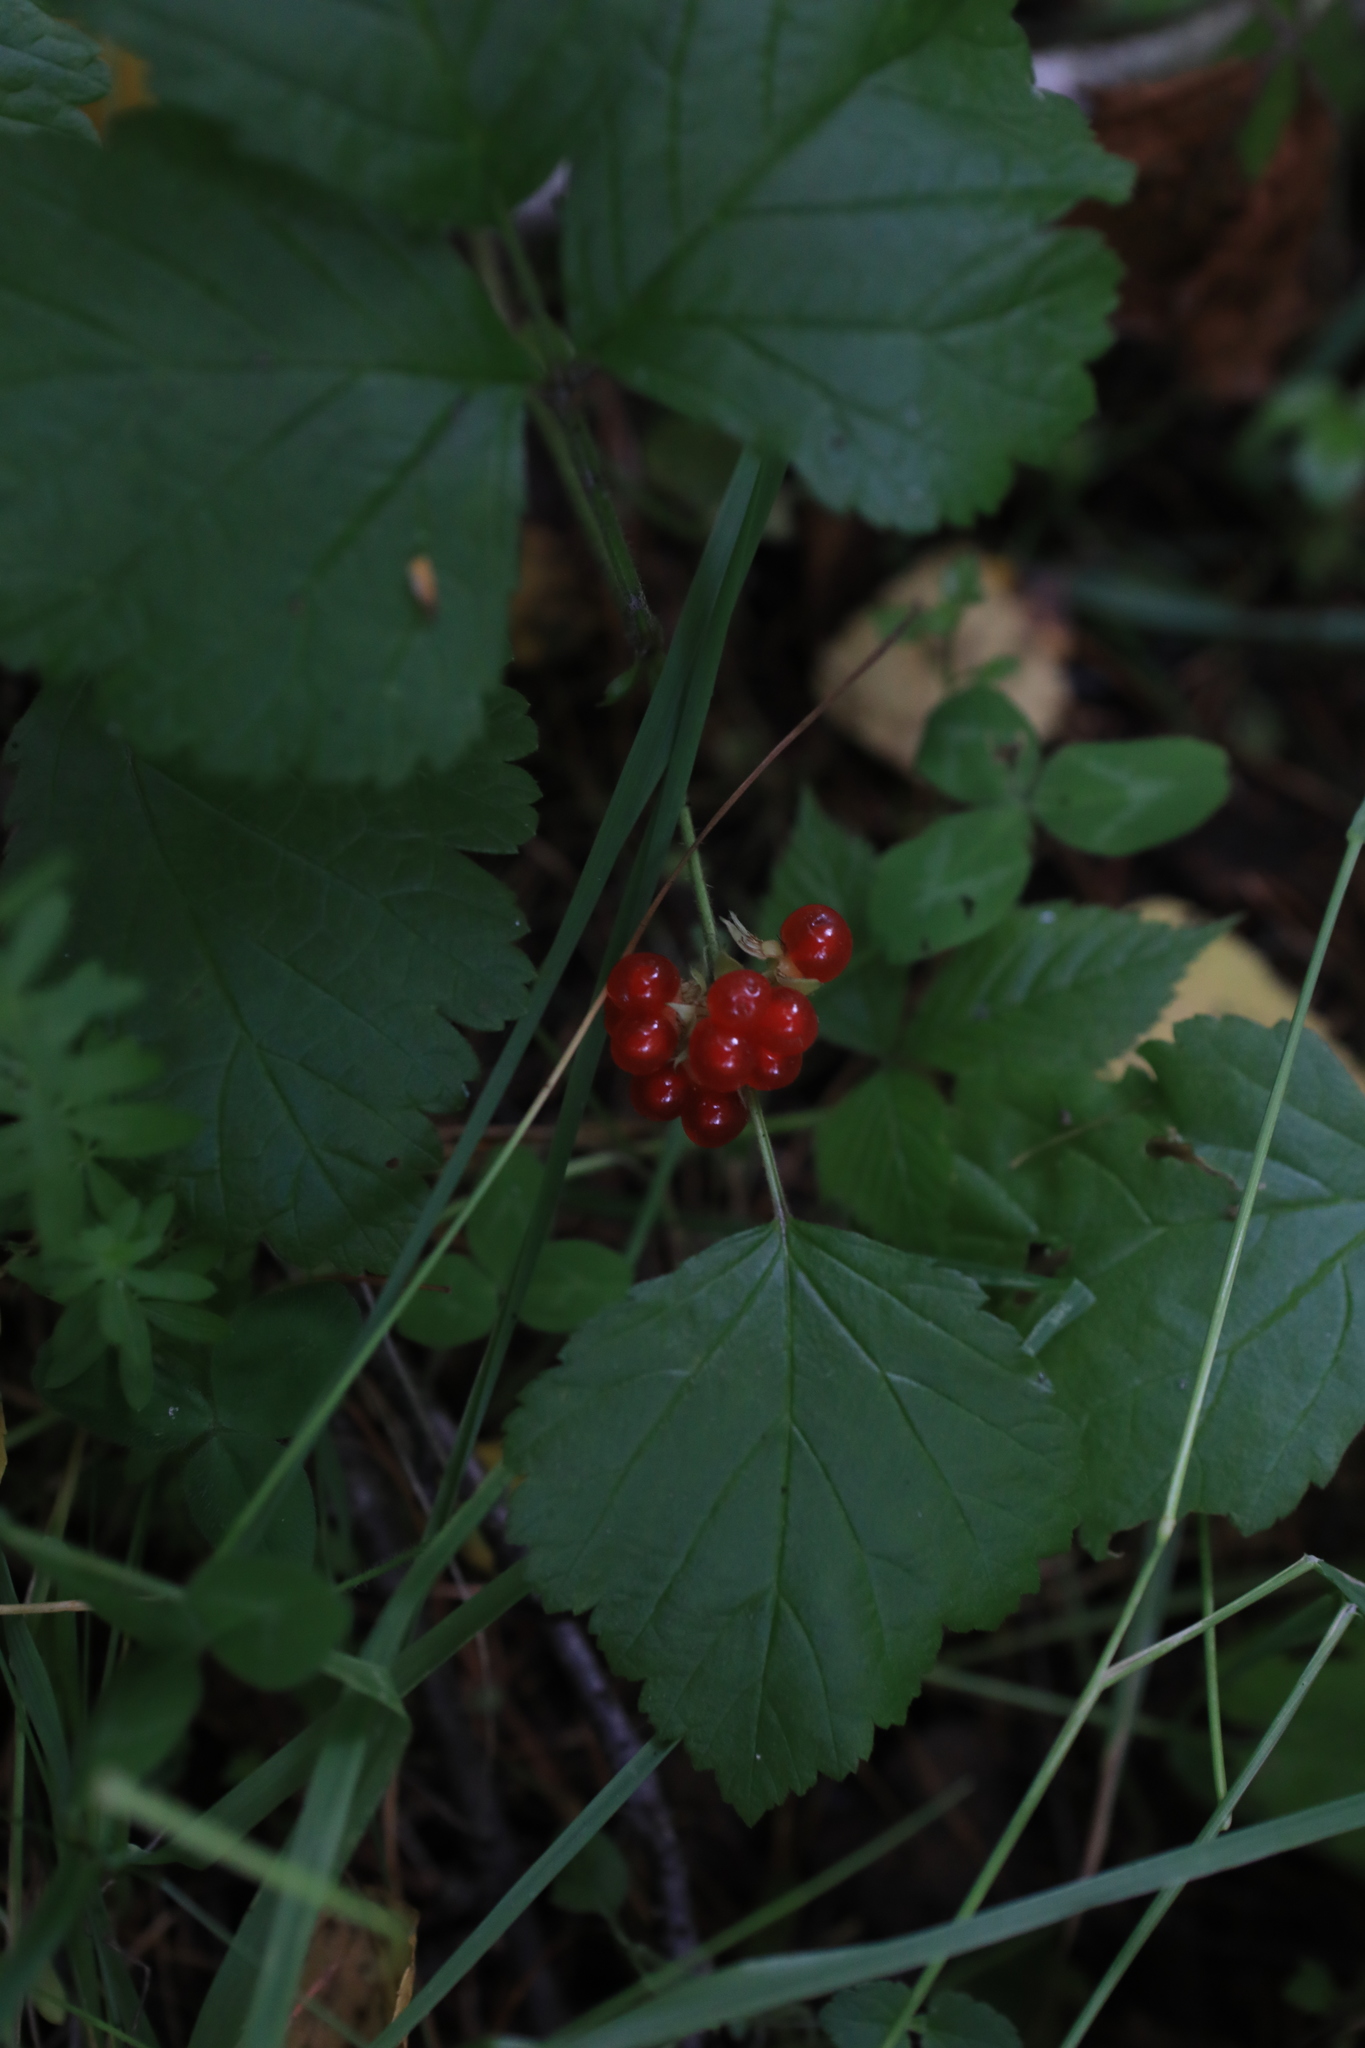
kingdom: Plantae
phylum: Tracheophyta
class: Magnoliopsida
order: Rosales
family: Rosaceae
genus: Rubus
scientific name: Rubus saxatilis
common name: Stone bramble
